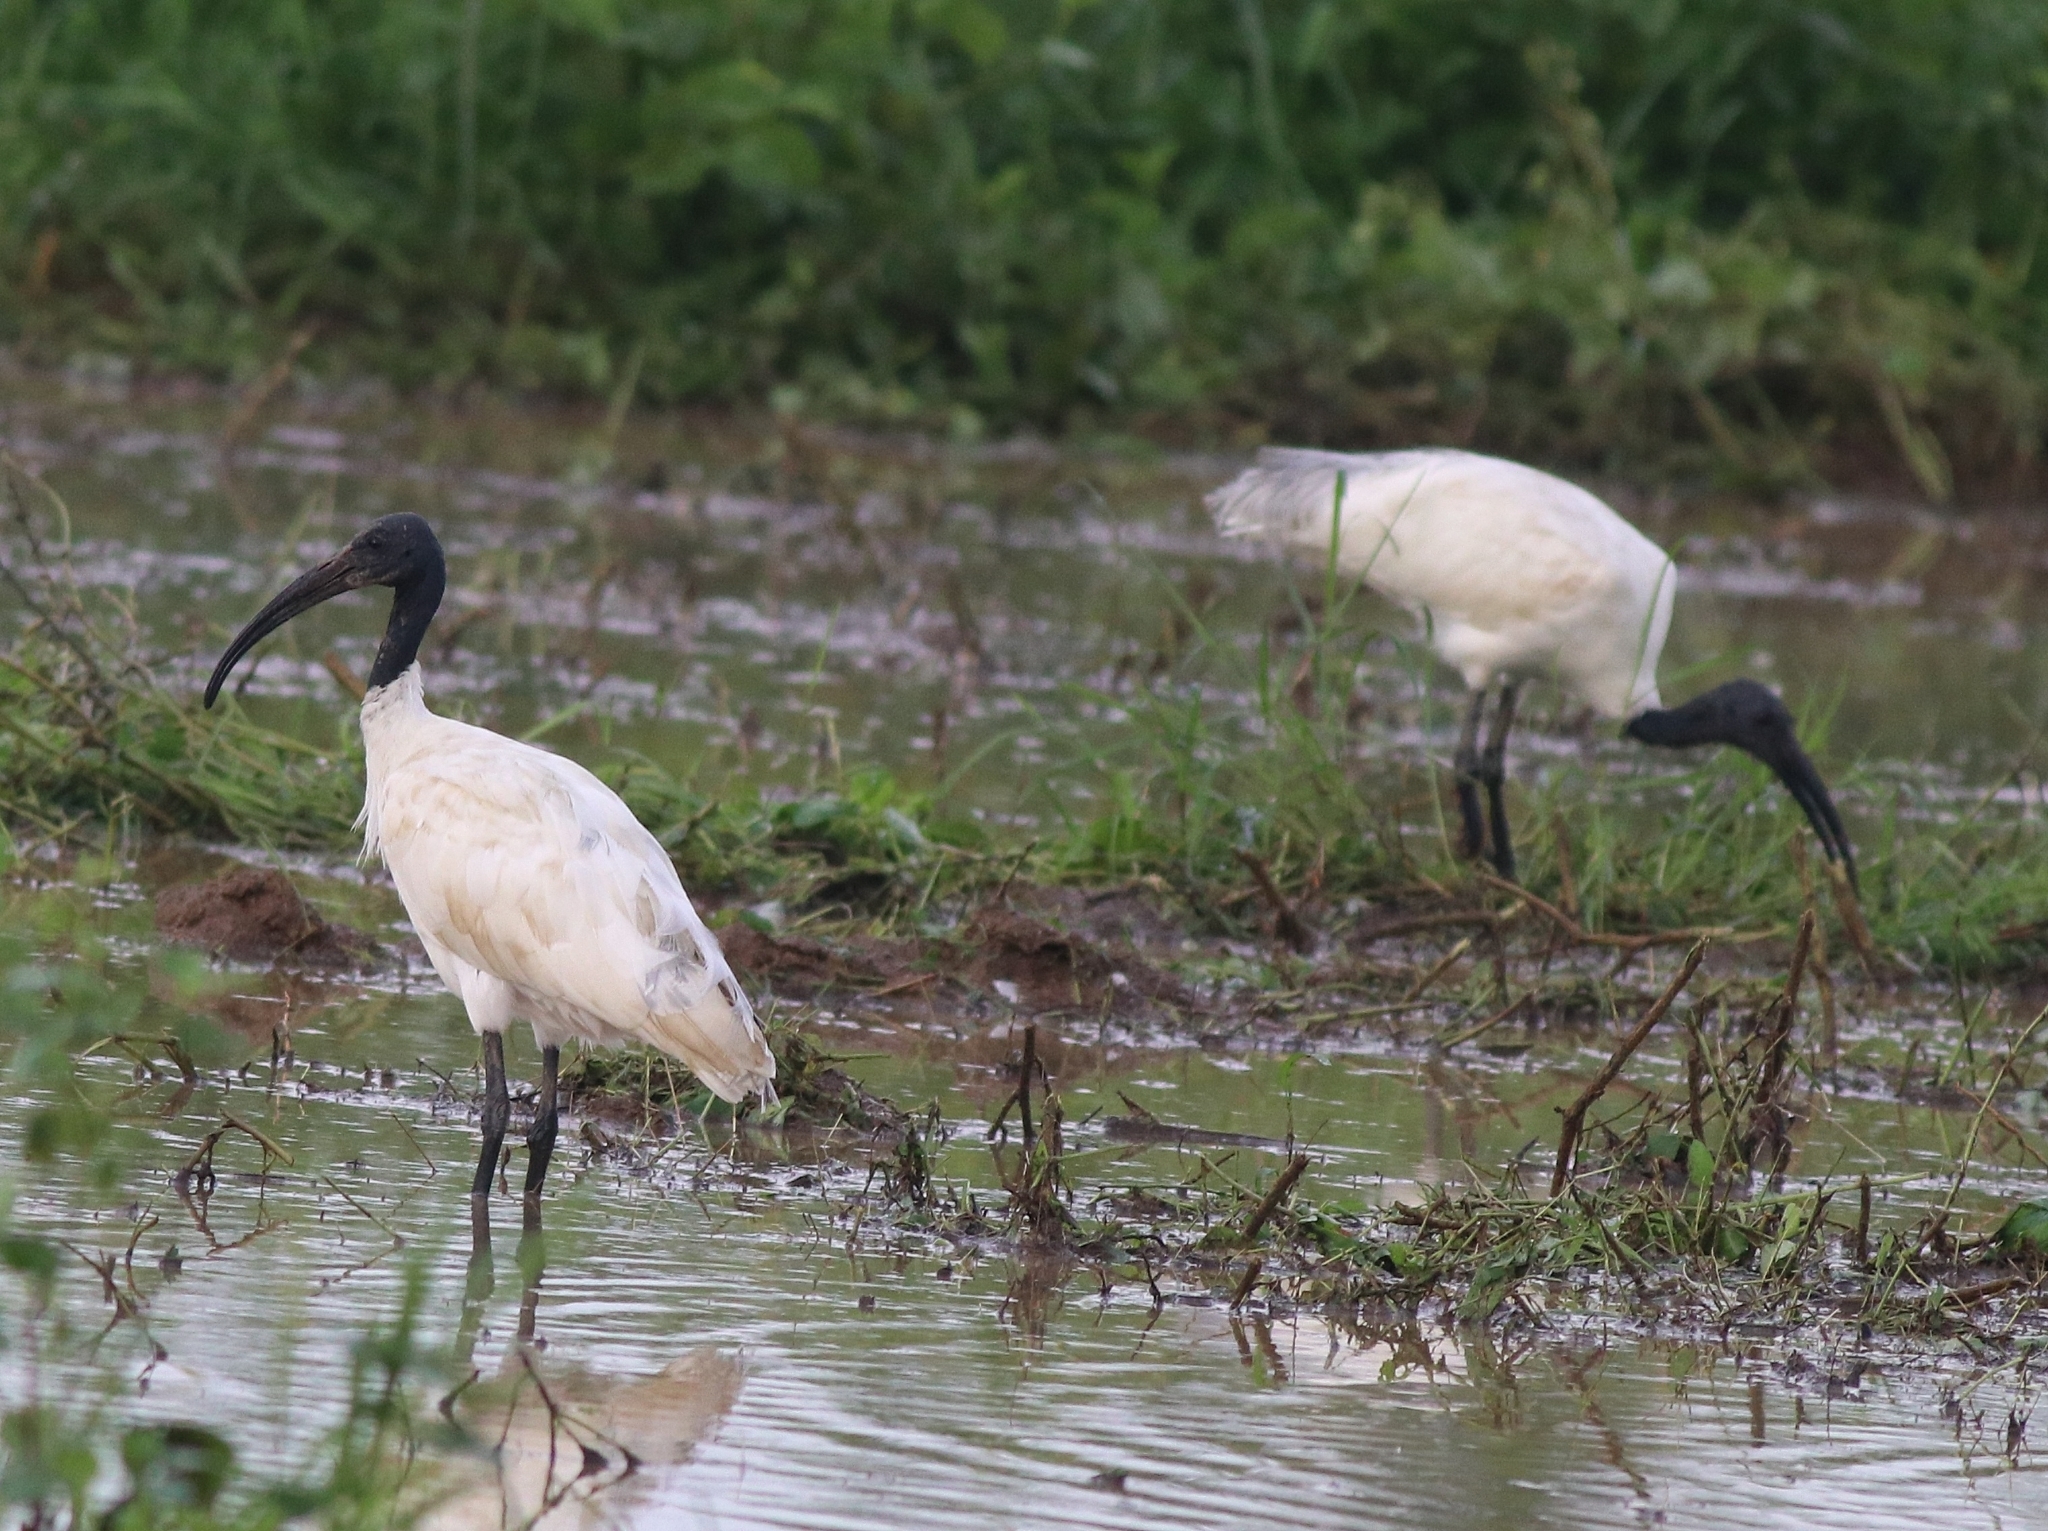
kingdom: Animalia
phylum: Chordata
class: Aves
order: Pelecaniformes
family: Threskiornithidae
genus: Threskiornis
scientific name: Threskiornis melanocephalus
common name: Black-headed ibis
